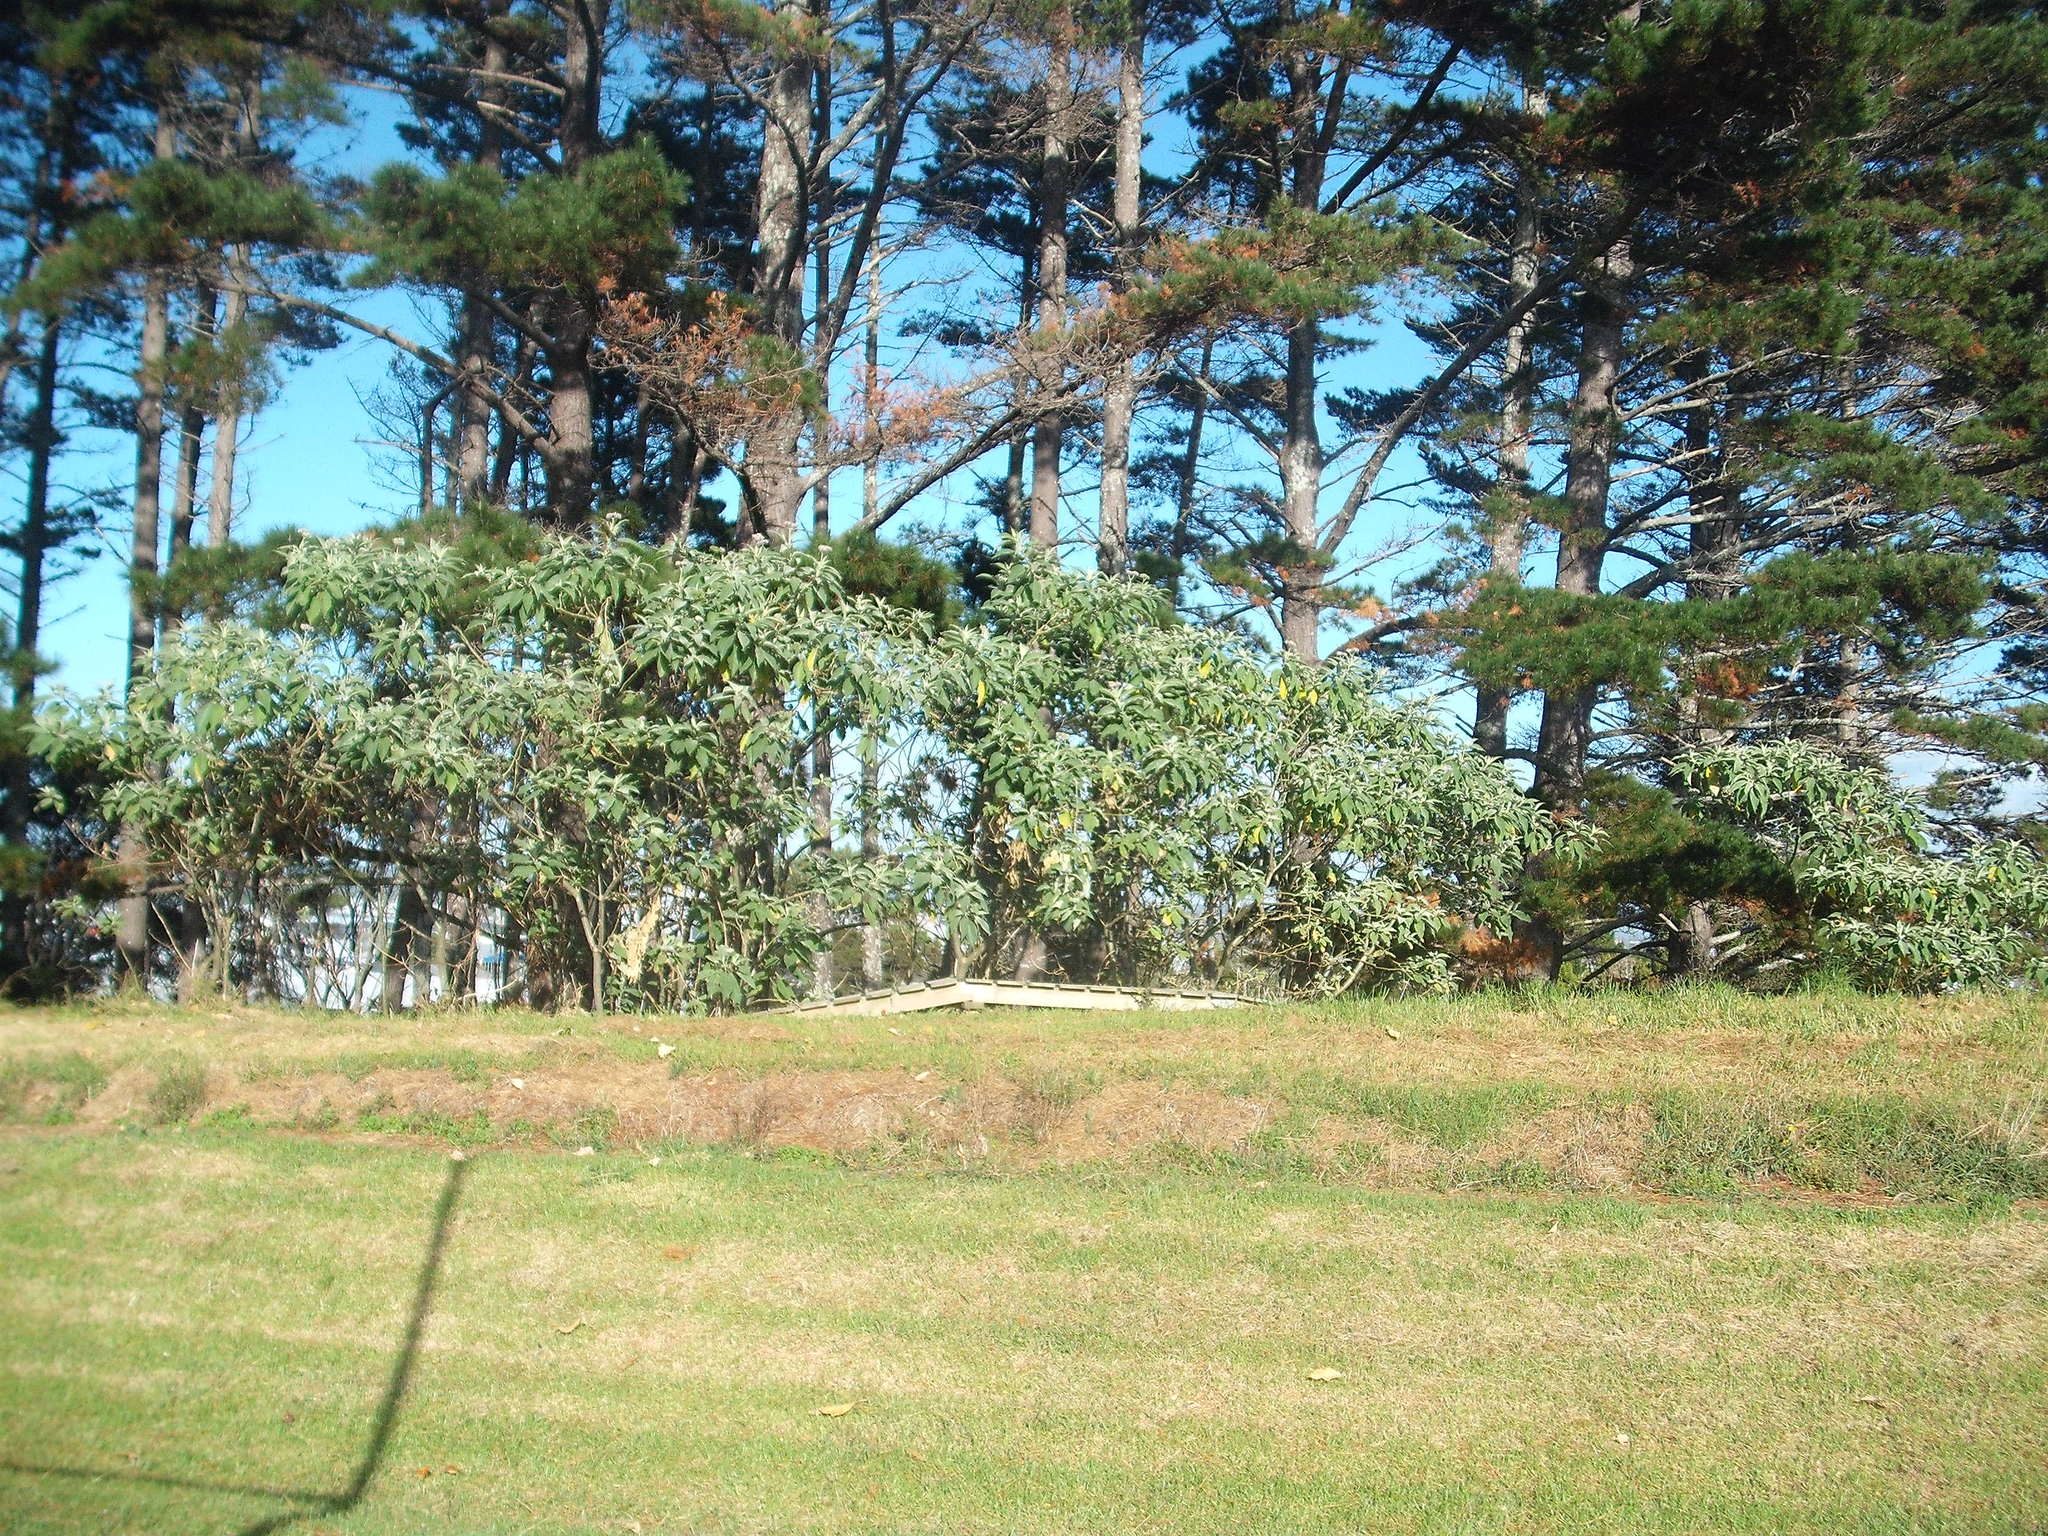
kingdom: Plantae
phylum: Tracheophyta
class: Magnoliopsida
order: Solanales
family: Solanaceae
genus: Solanum
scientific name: Solanum mauritianum
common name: Earleaf nightshade
